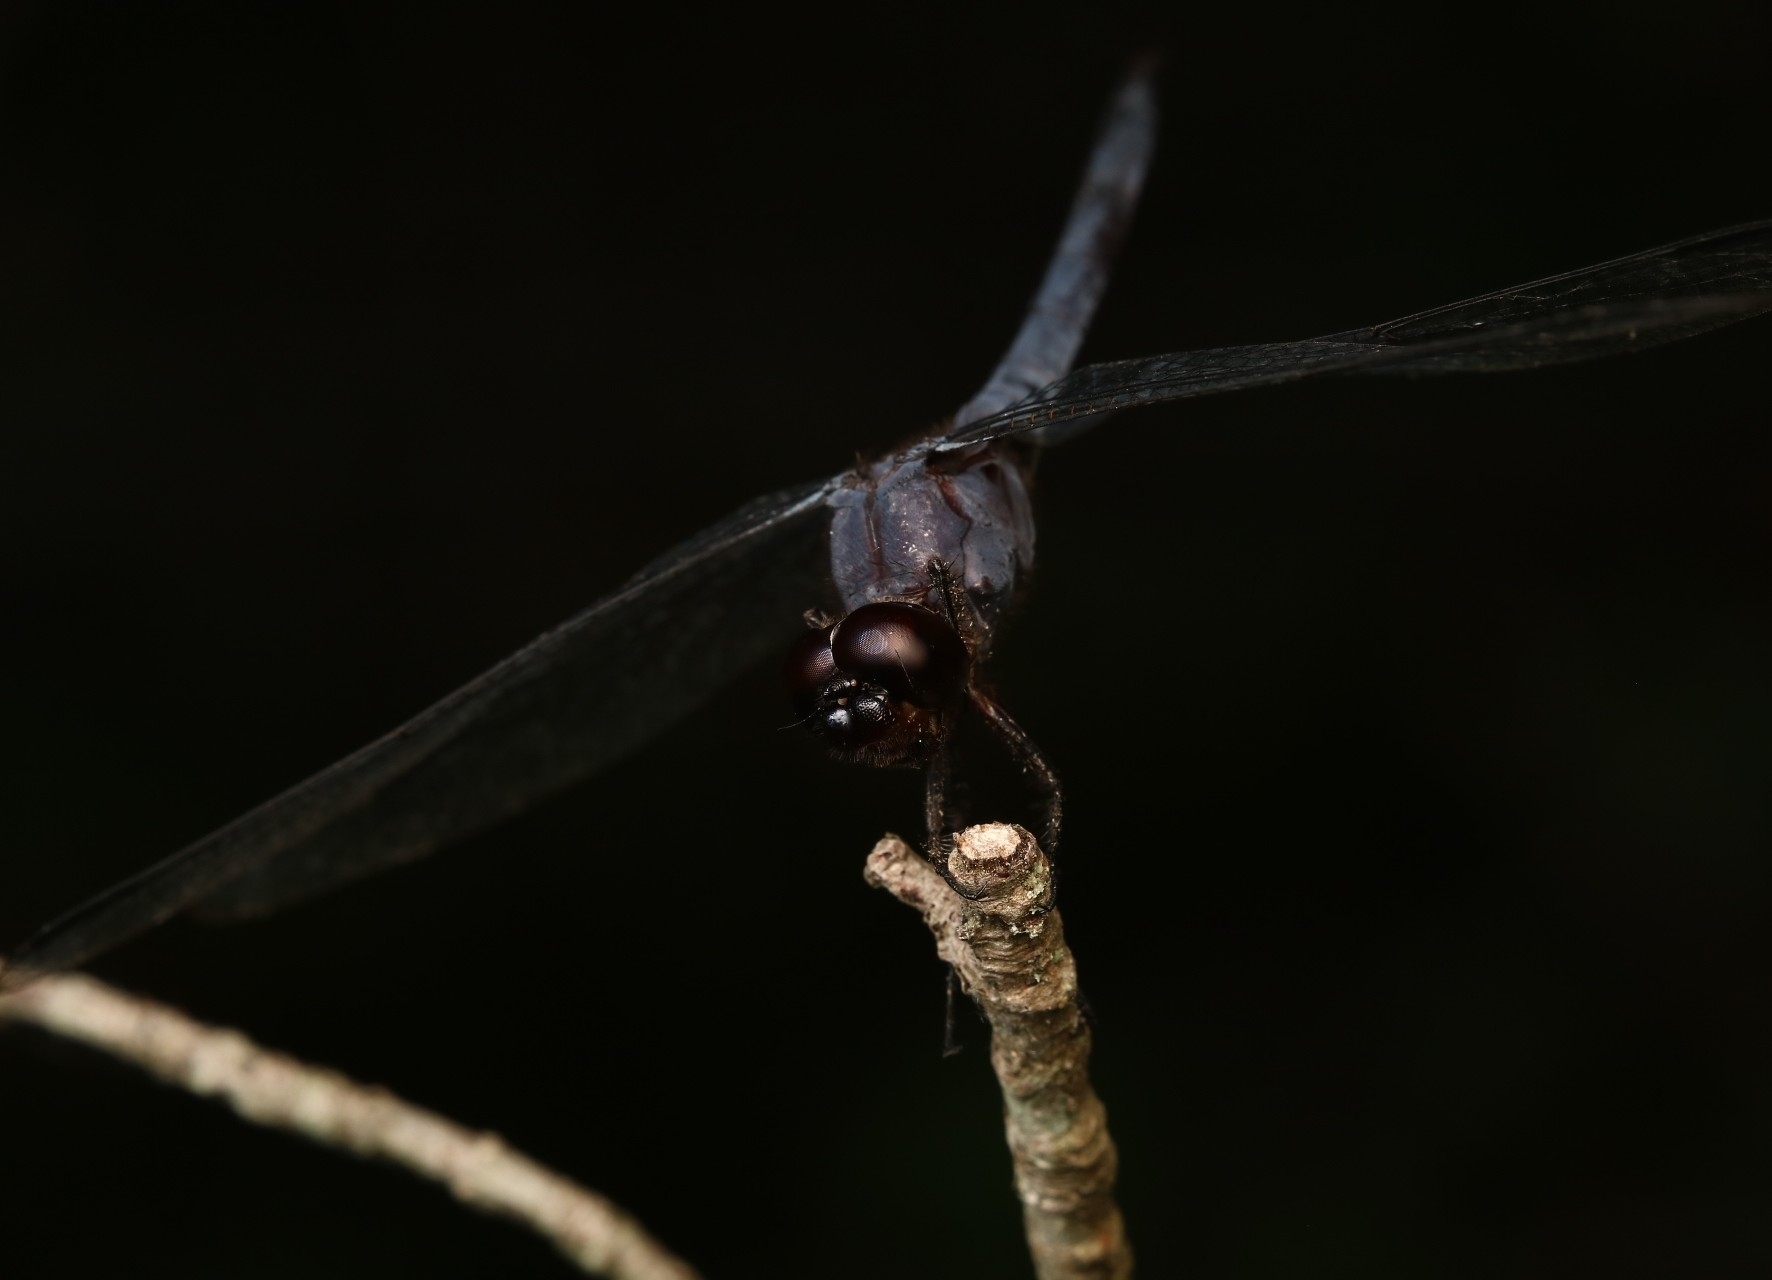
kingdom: Animalia
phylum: Arthropoda
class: Insecta
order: Odonata
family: Libellulidae
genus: Libellula
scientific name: Libellula incesta
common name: Slaty skimmer
